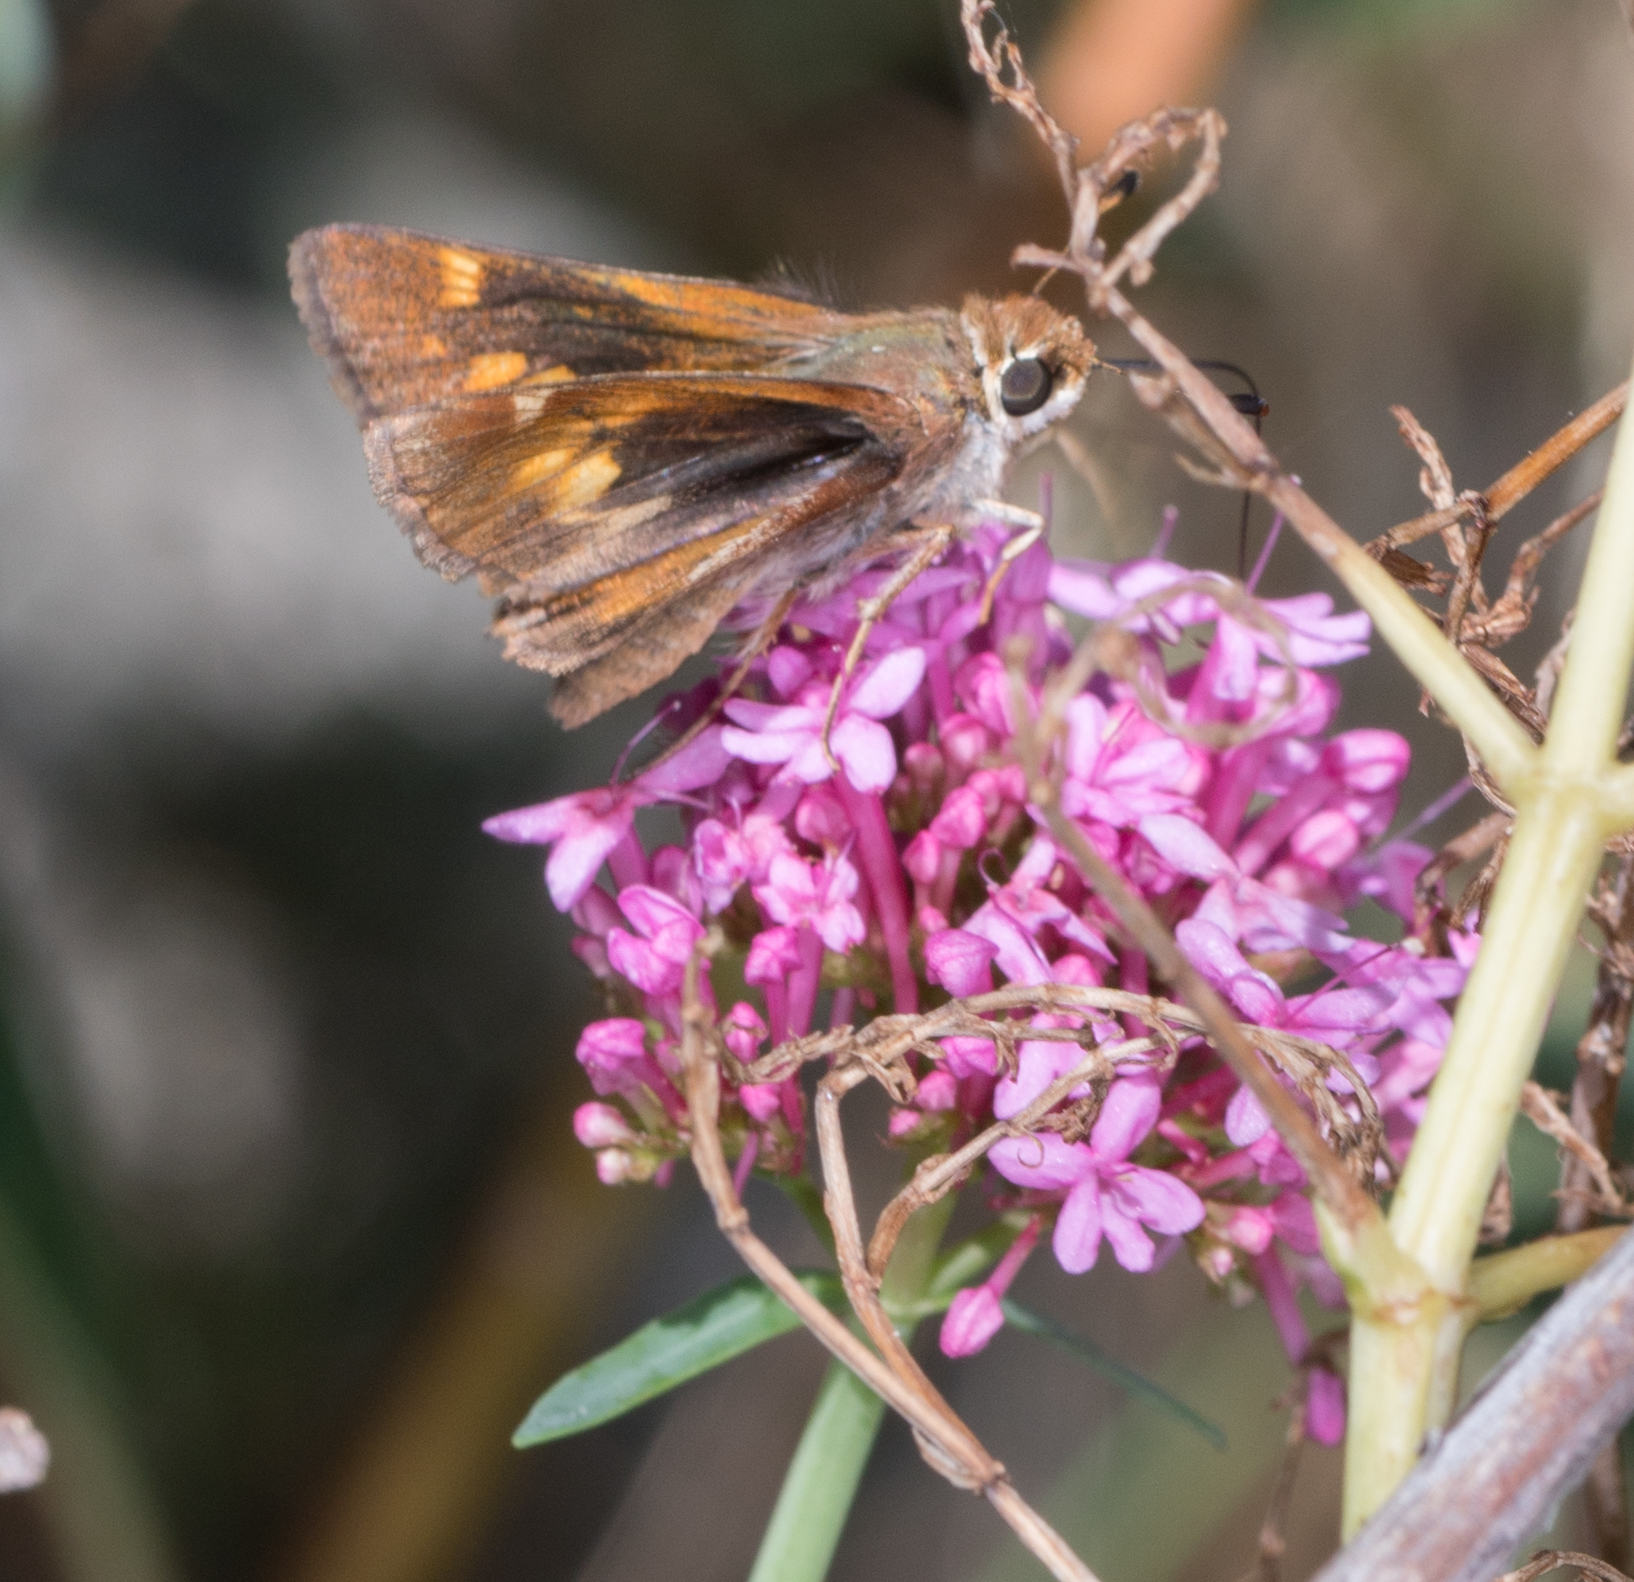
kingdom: Animalia
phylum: Arthropoda
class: Insecta
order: Lepidoptera
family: Hesperiidae
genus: Lon
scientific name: Lon melane
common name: Umber skipper
